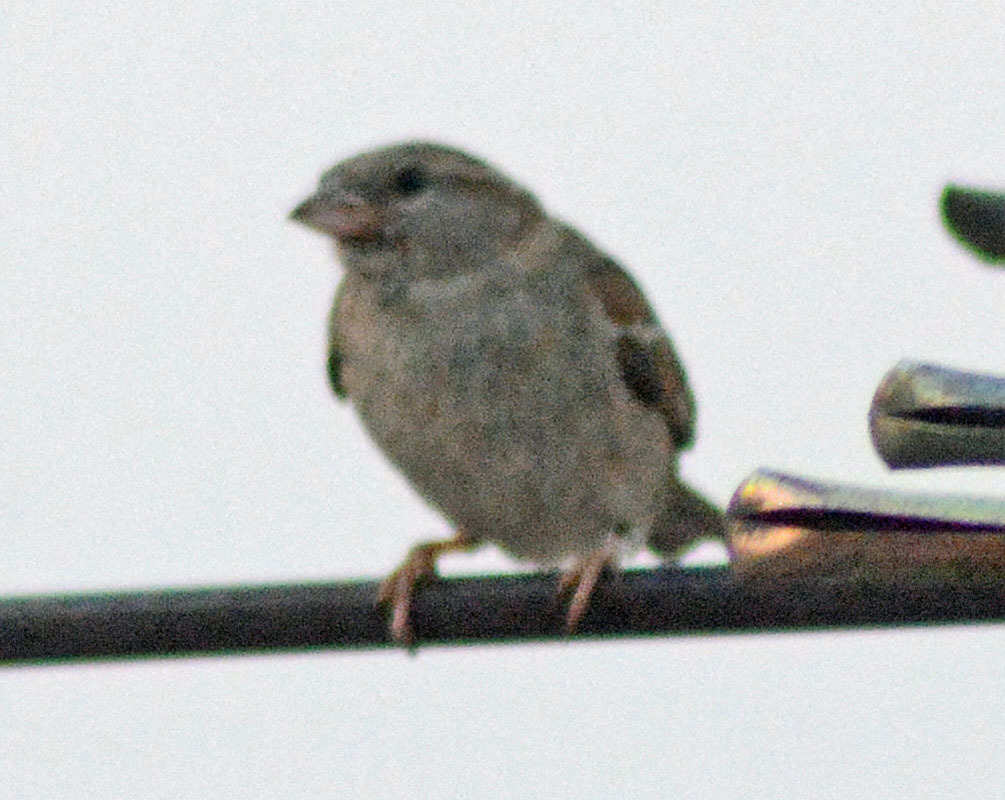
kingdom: Animalia
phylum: Chordata
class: Aves
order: Passeriformes
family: Passeridae
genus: Passer
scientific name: Passer domesticus
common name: House sparrow
